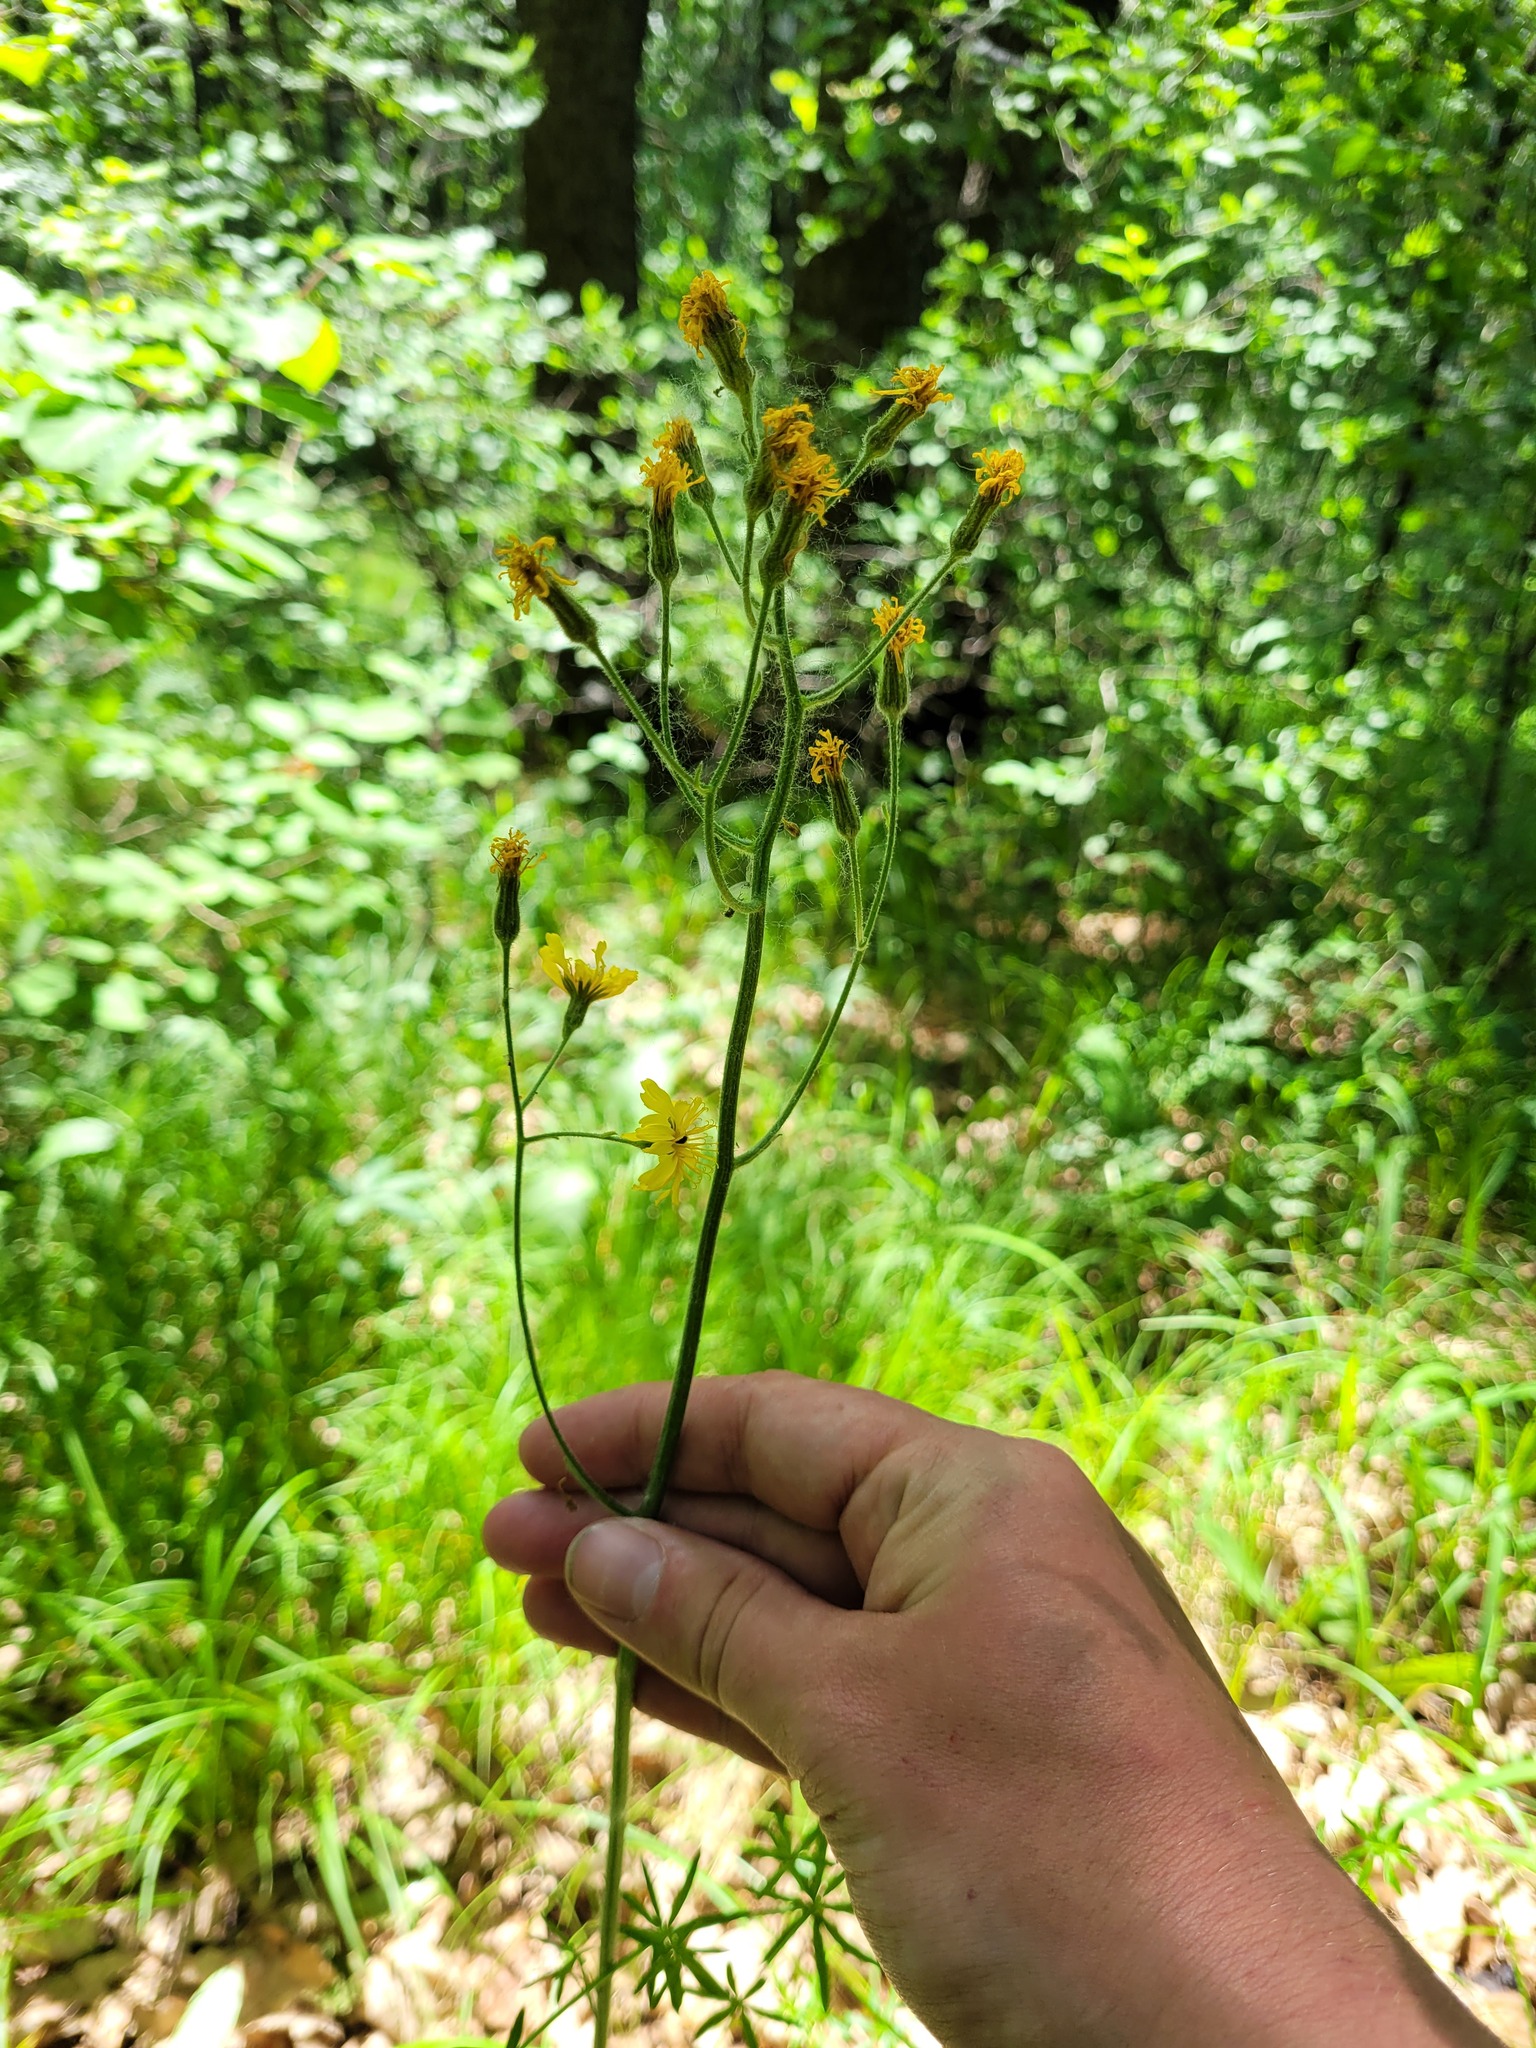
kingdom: Plantae
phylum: Tracheophyta
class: Magnoliopsida
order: Asterales
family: Asteraceae
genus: Crepis
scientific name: Crepis praemorsa
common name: Leafless hawk's-beard
